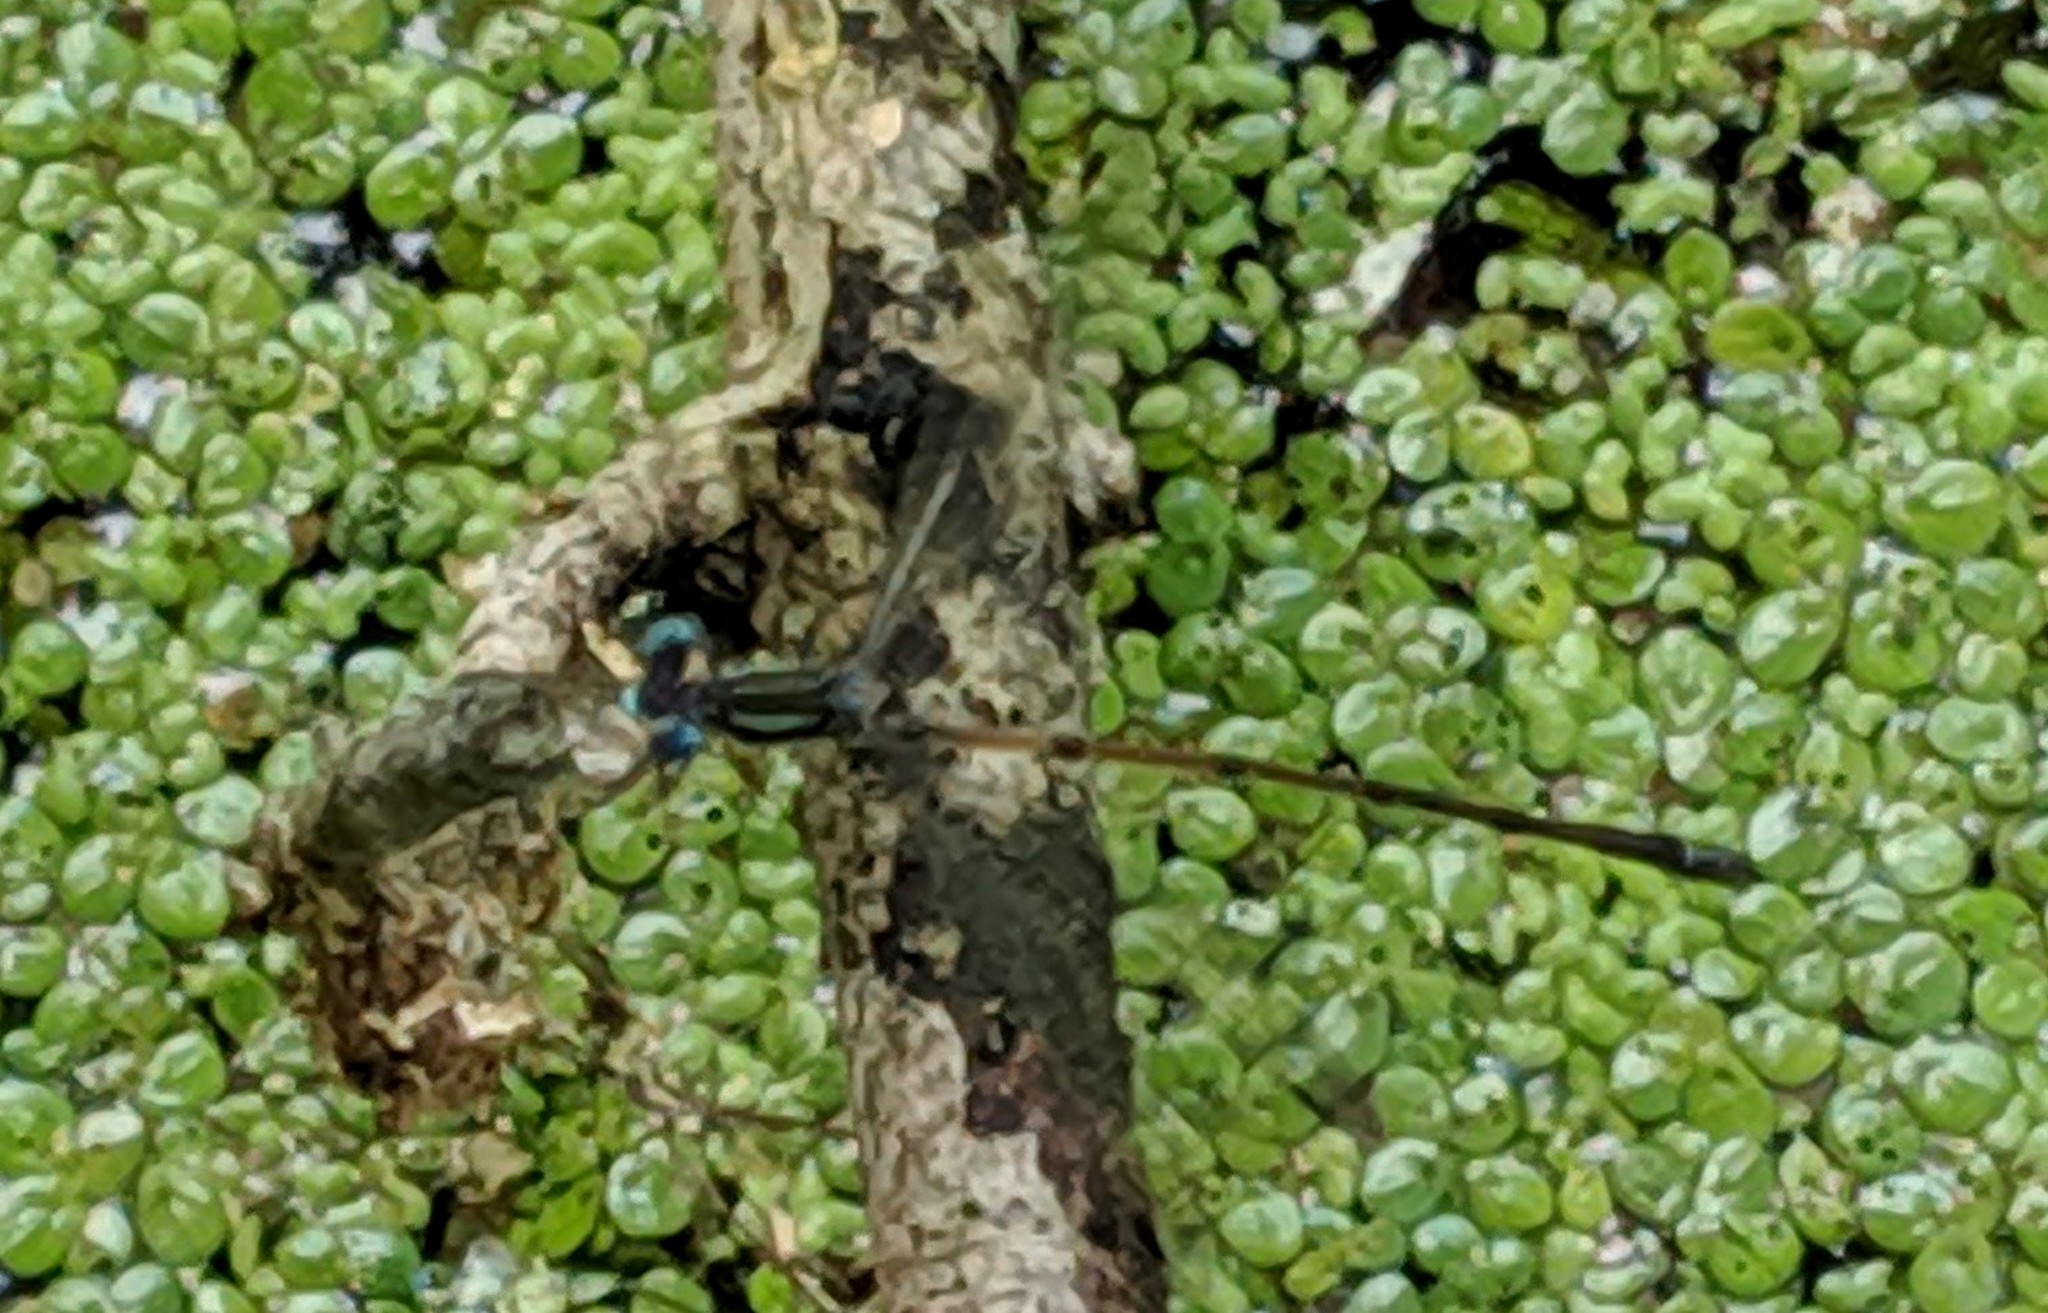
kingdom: Animalia
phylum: Arthropoda
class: Insecta
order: Odonata
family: Lestidae
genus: Lestes
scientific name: Lestes rectangularis
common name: Slender spreadwing
